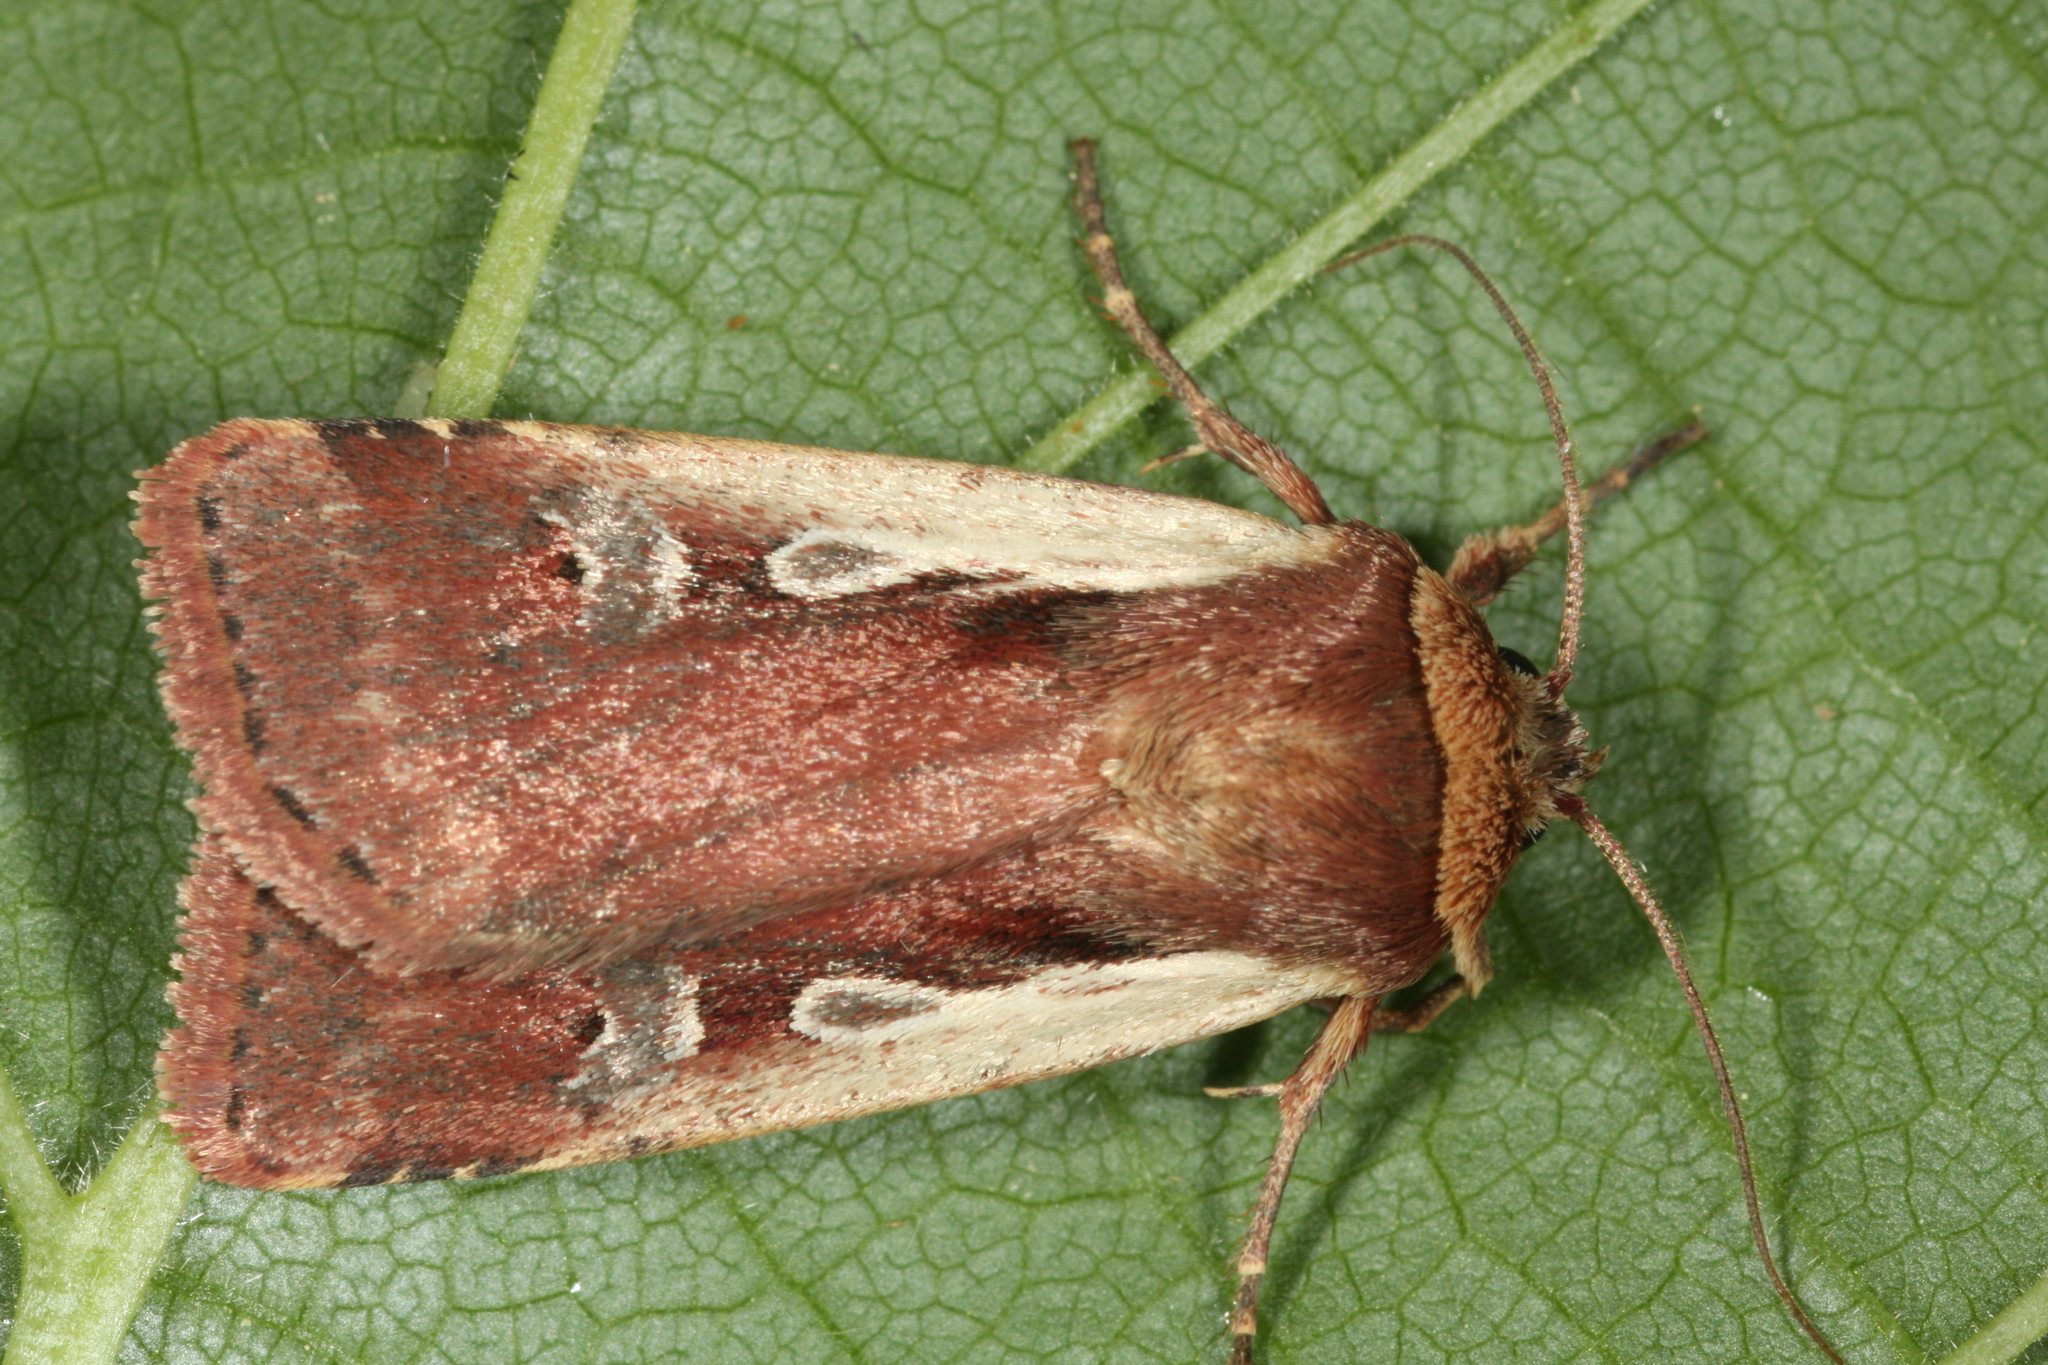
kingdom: Animalia
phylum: Arthropoda
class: Insecta
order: Lepidoptera
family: Noctuidae
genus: Ochropleura
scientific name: Ochropleura plecta
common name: Flame shoulder
